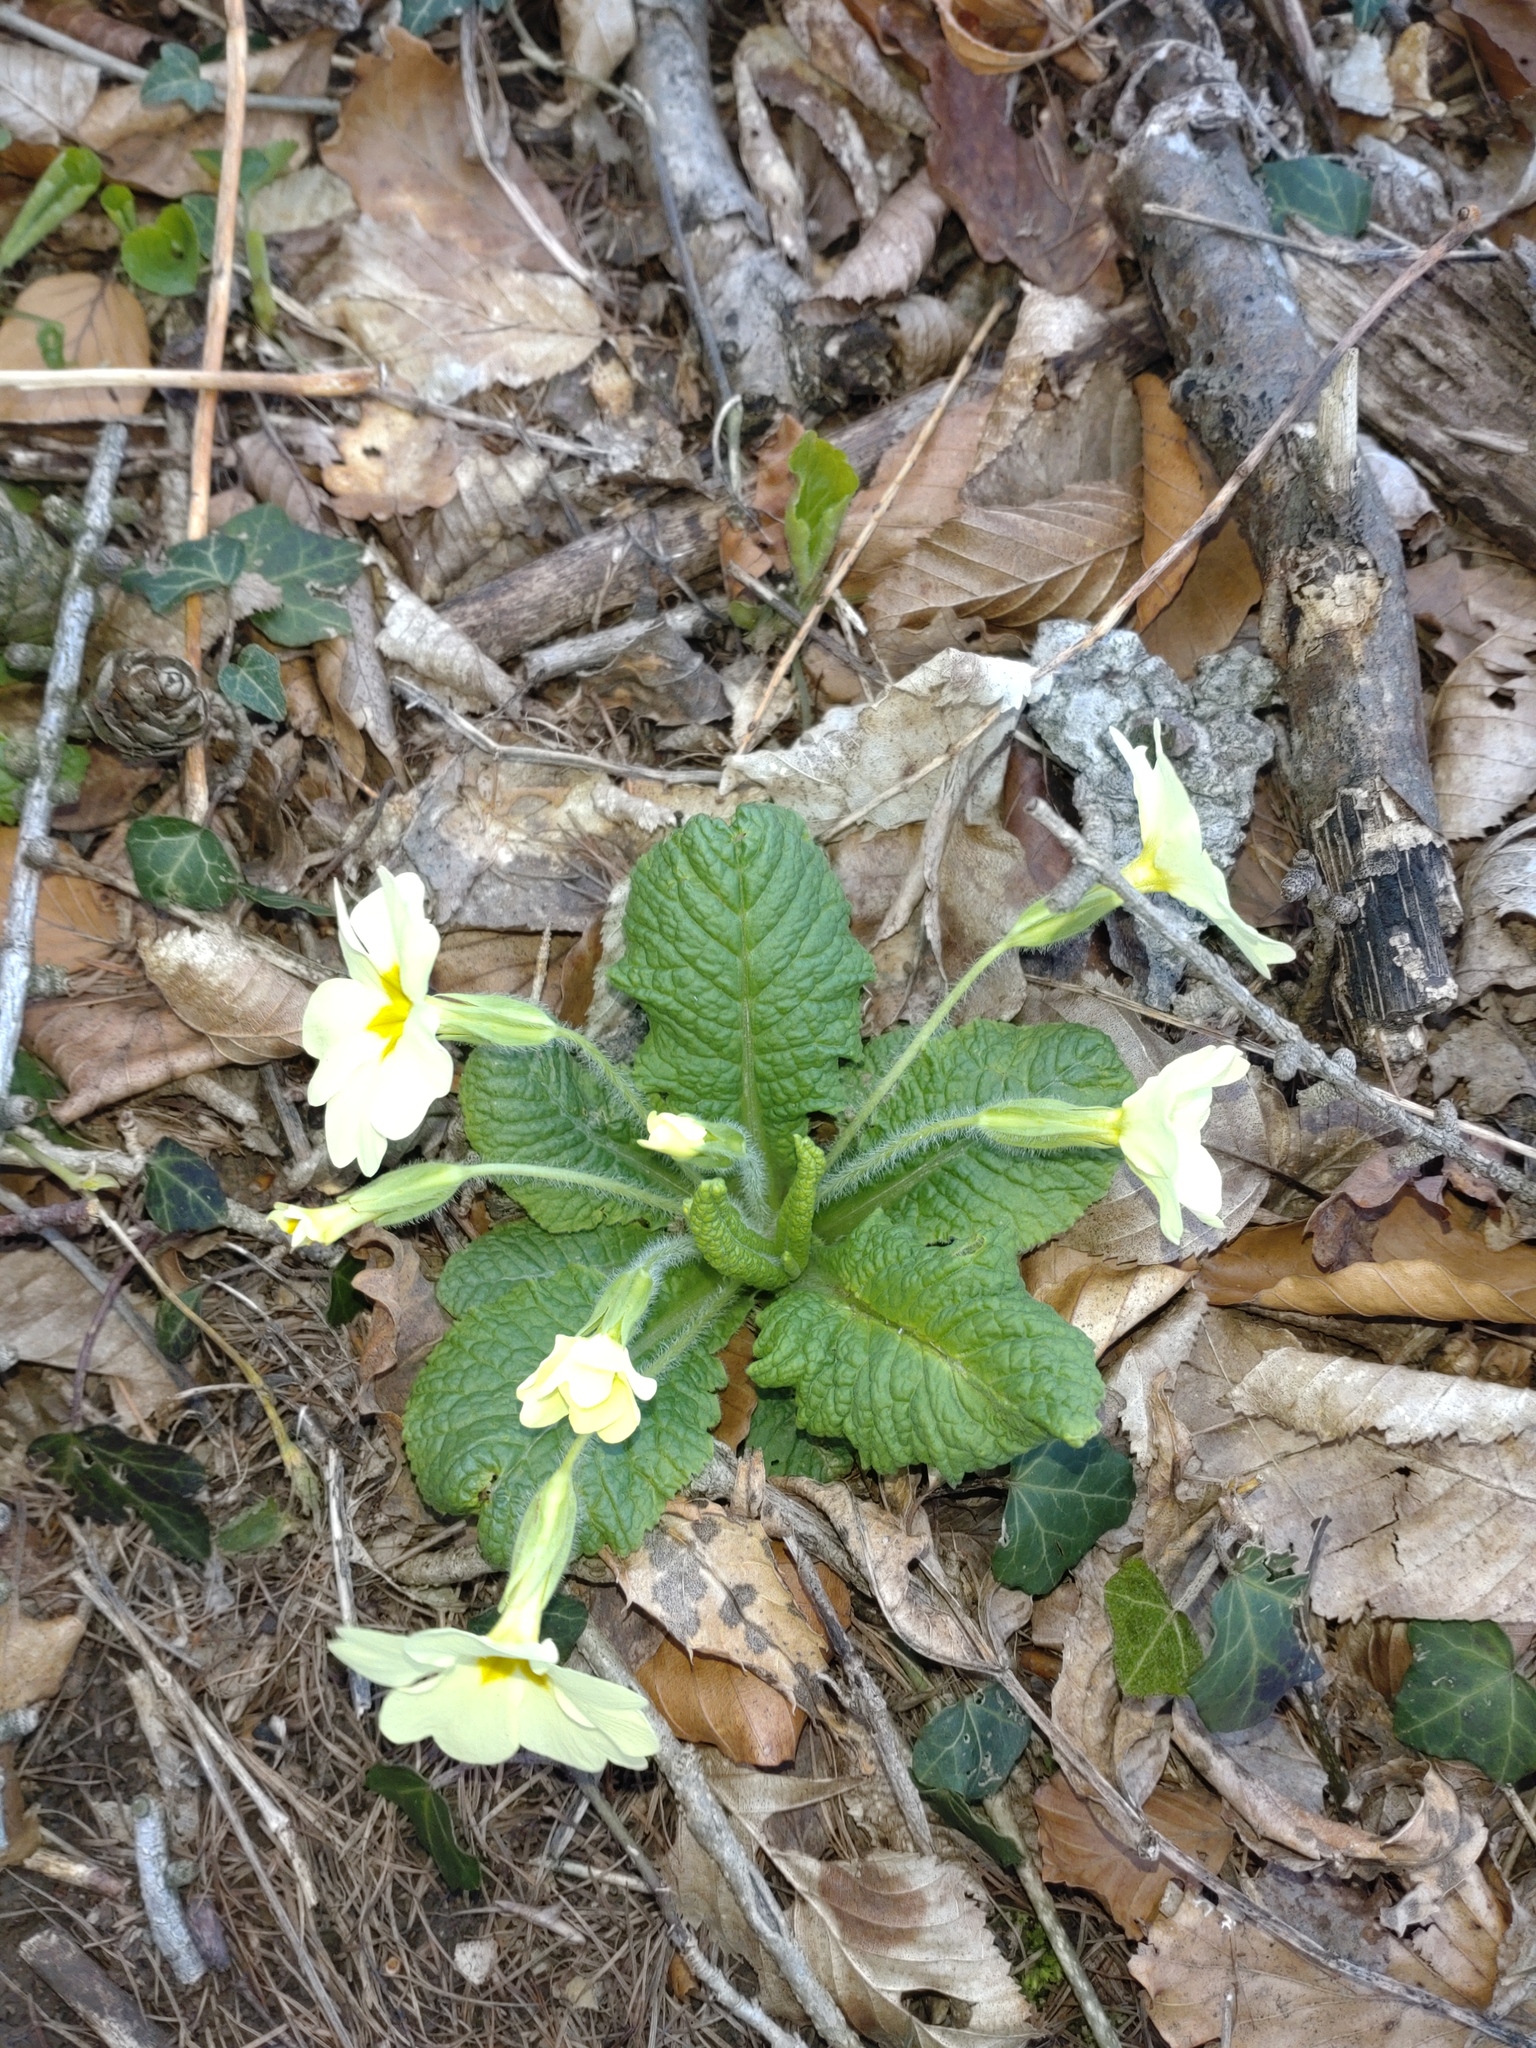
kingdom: Plantae
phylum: Tracheophyta
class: Magnoliopsida
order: Ericales
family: Primulaceae
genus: Primula
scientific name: Primula vulgaris
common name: Primrose
